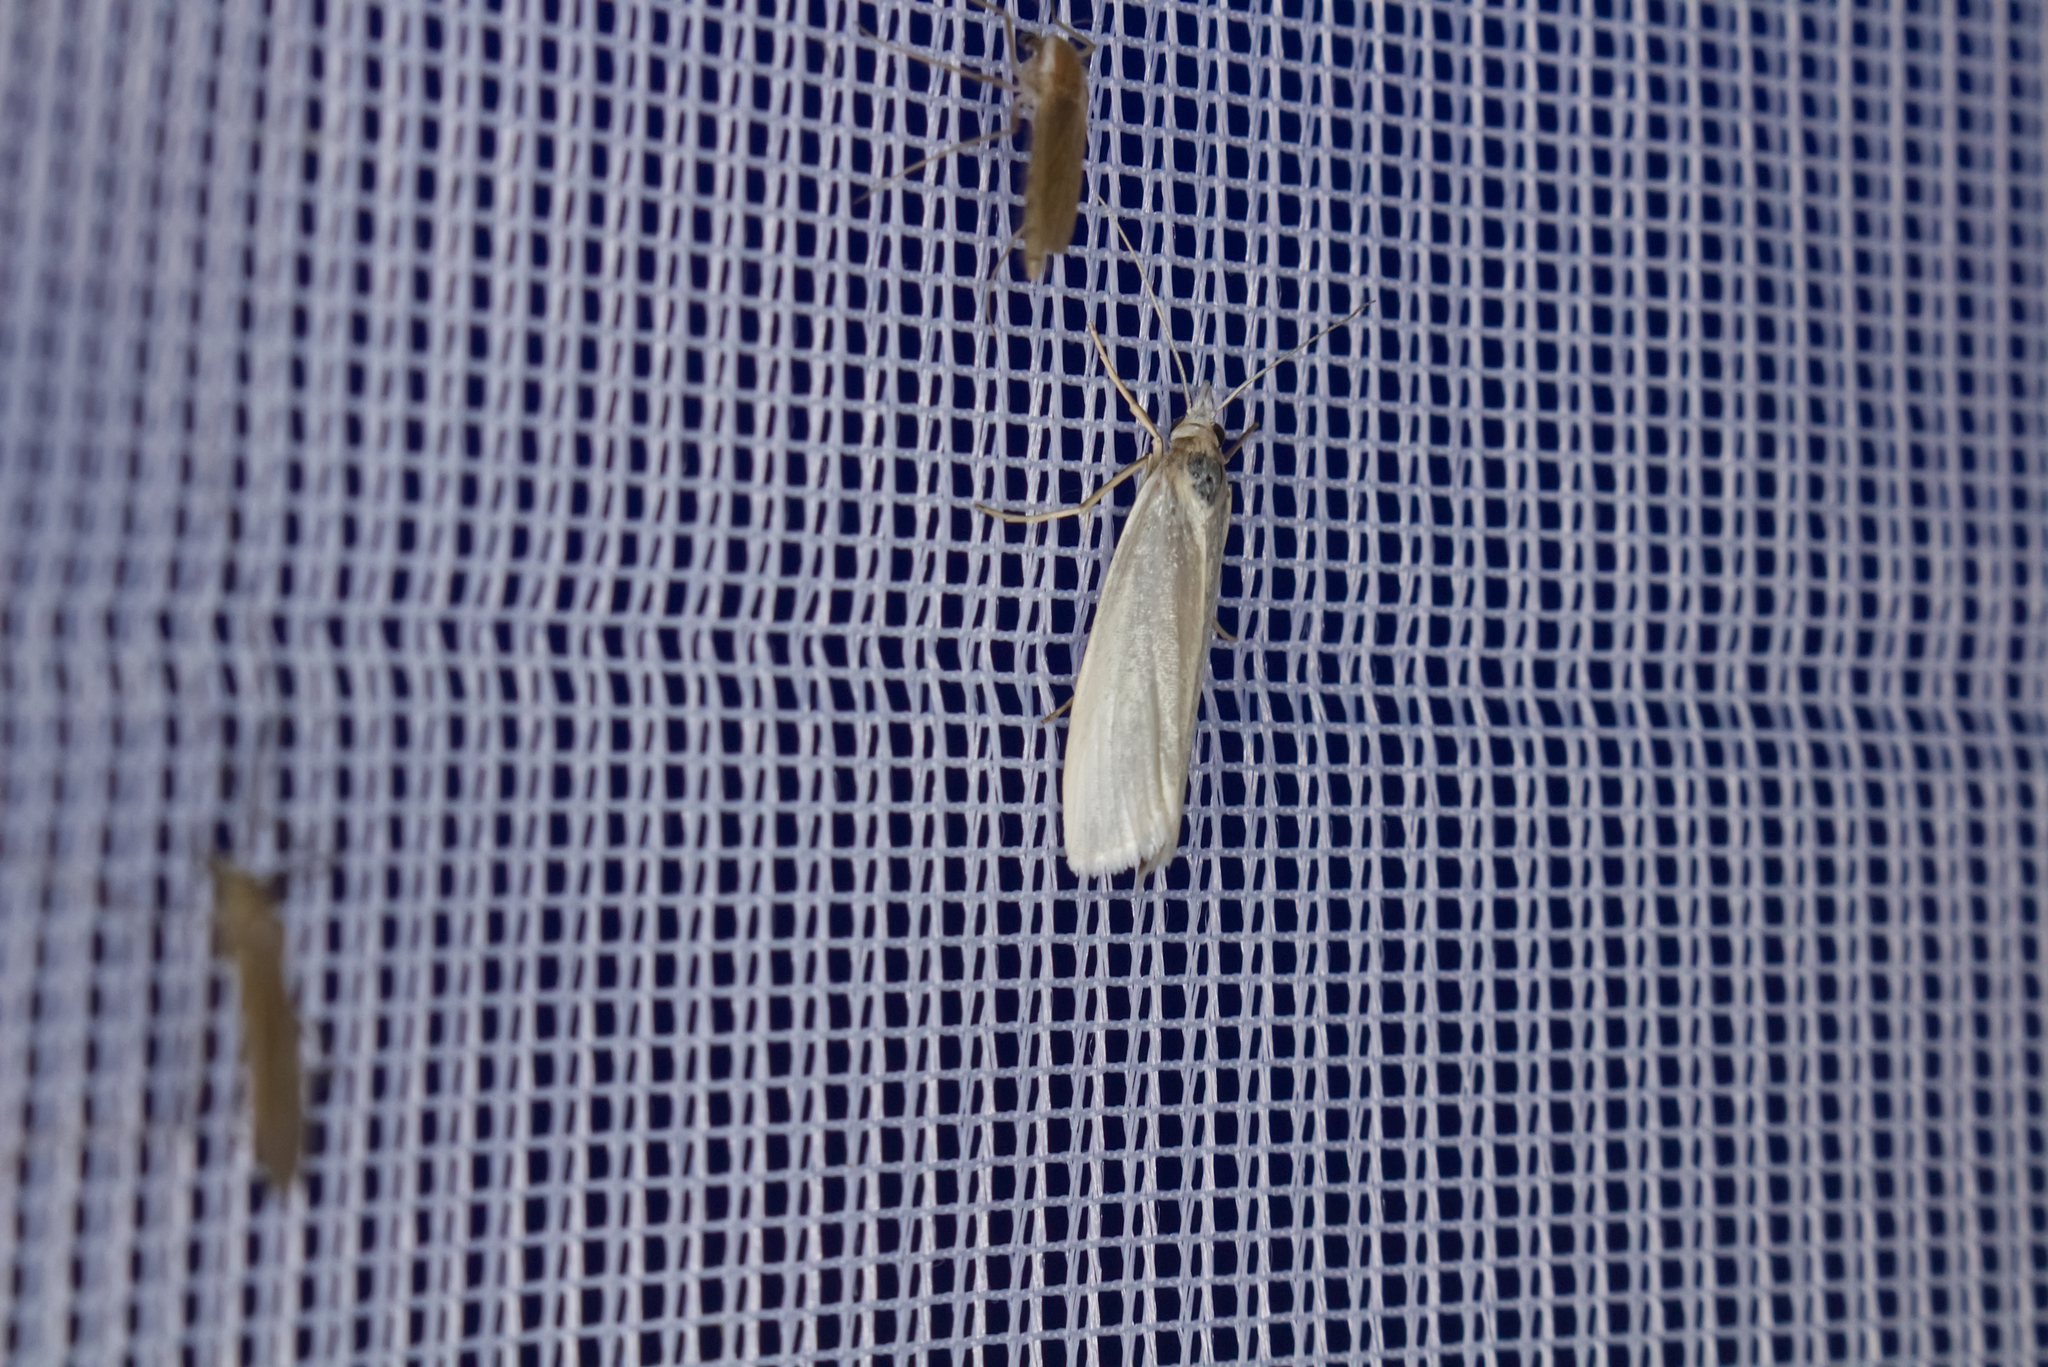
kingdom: Animalia
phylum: Arthropoda
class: Insecta
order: Lepidoptera
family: Crambidae
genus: Crambus
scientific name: Crambus perlellus
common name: Yellow satin veneer
